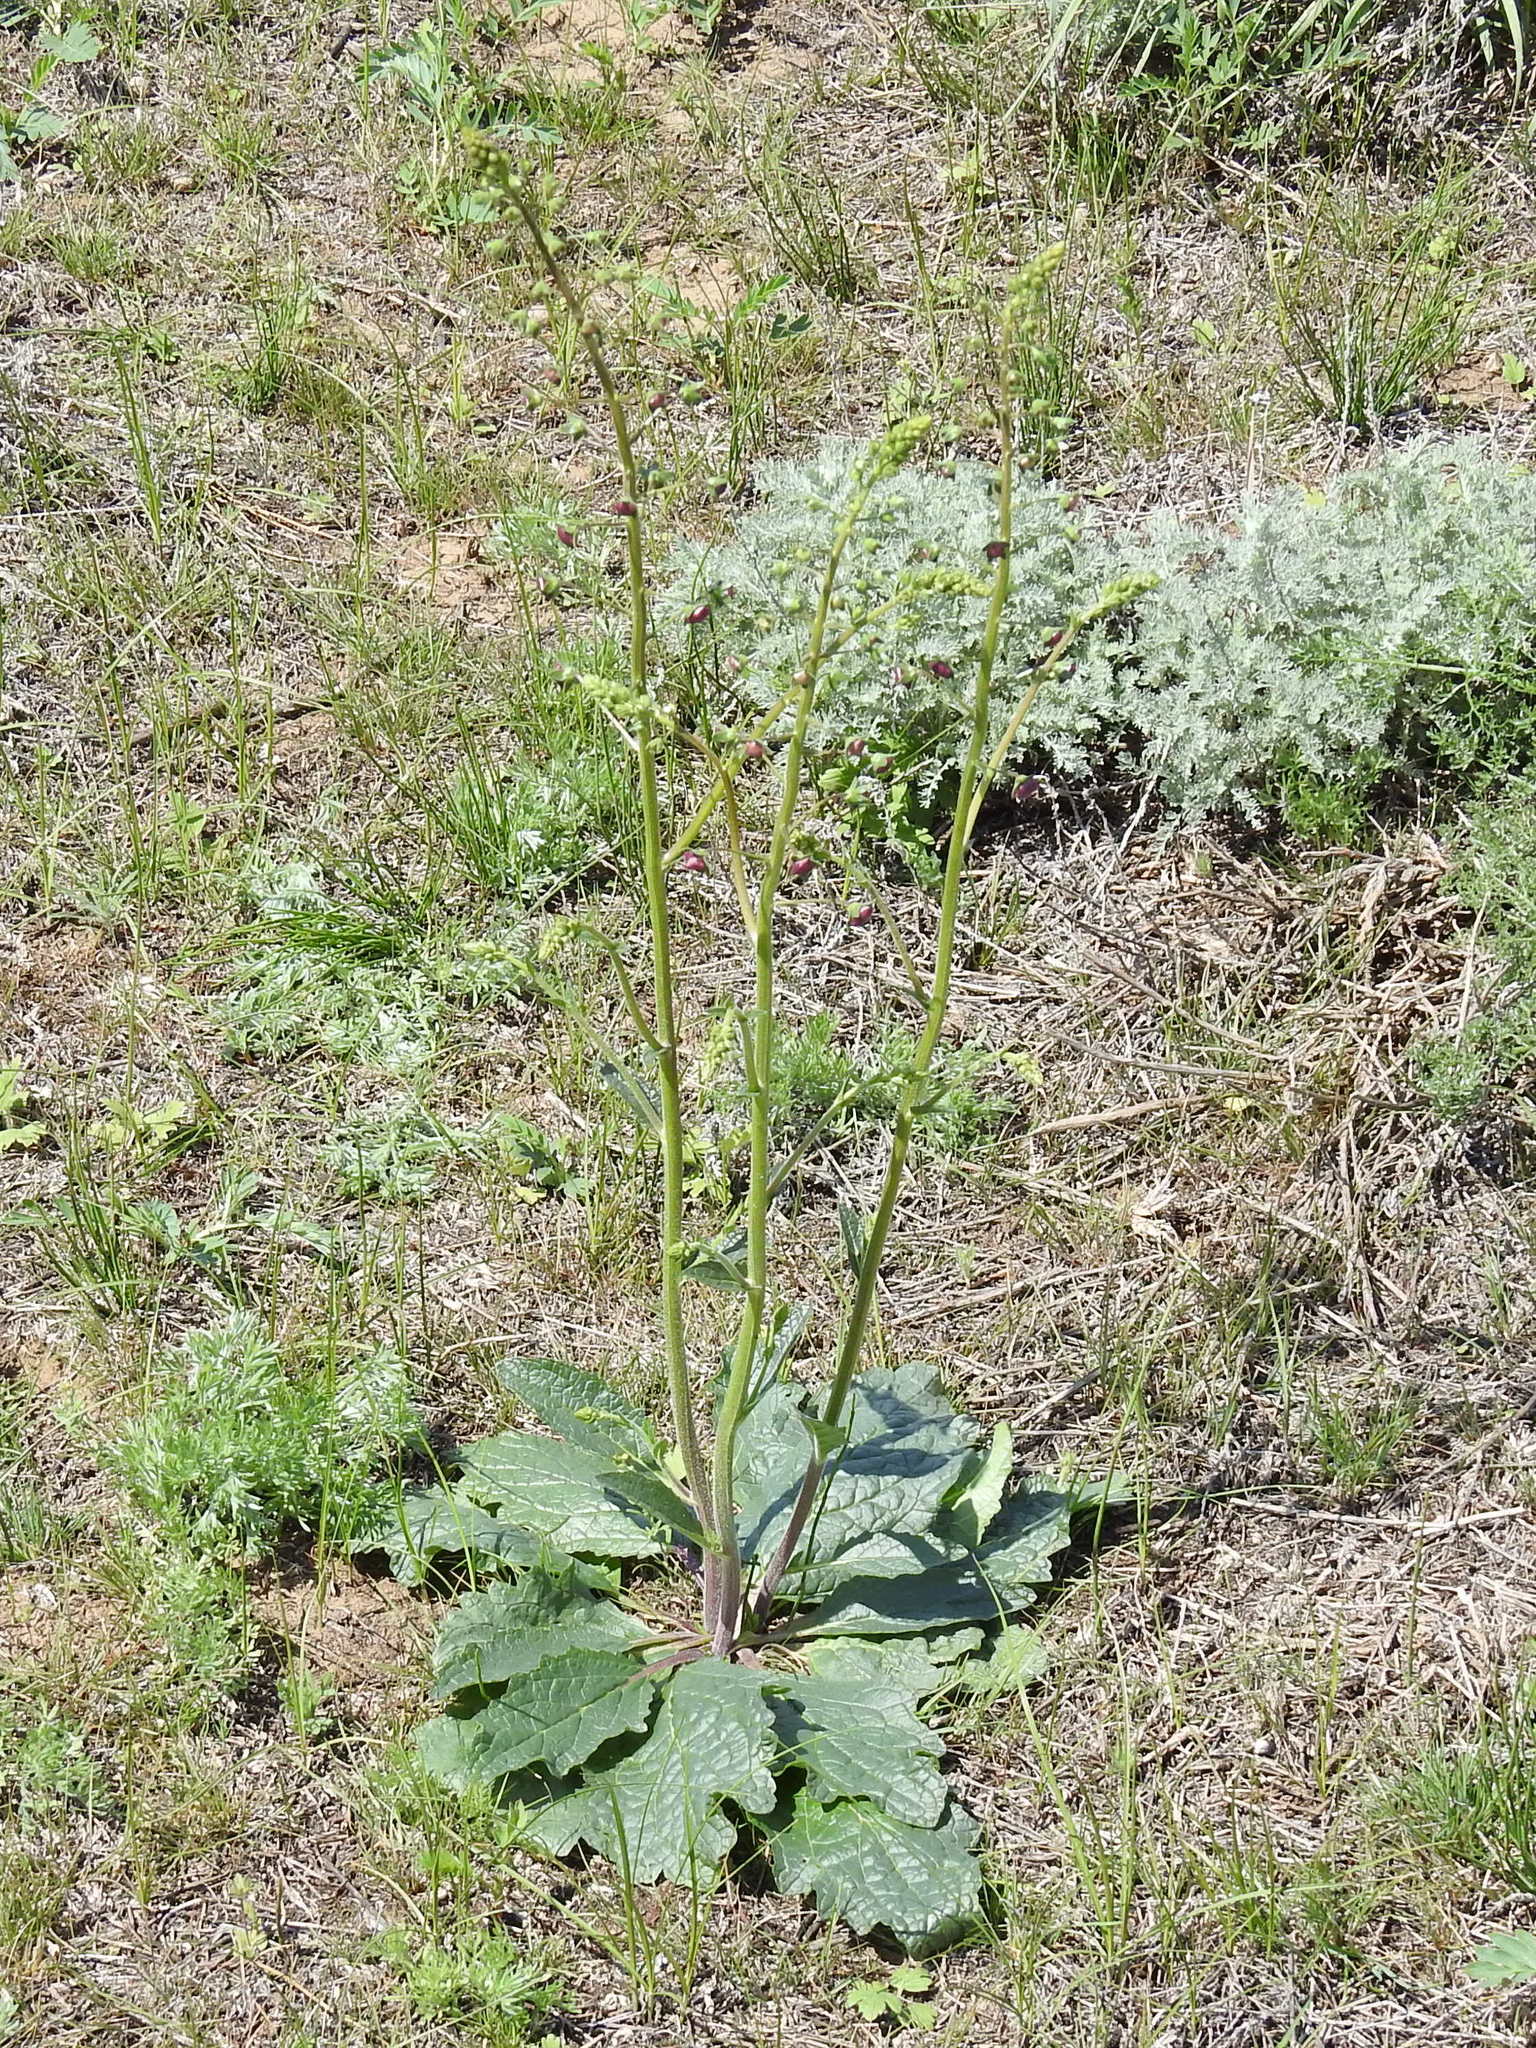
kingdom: Plantae
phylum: Tracheophyta
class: Magnoliopsida
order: Lamiales
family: Scrophulariaceae
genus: Verbascum
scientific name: Verbascum phoeniceum
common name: Purple mullein
